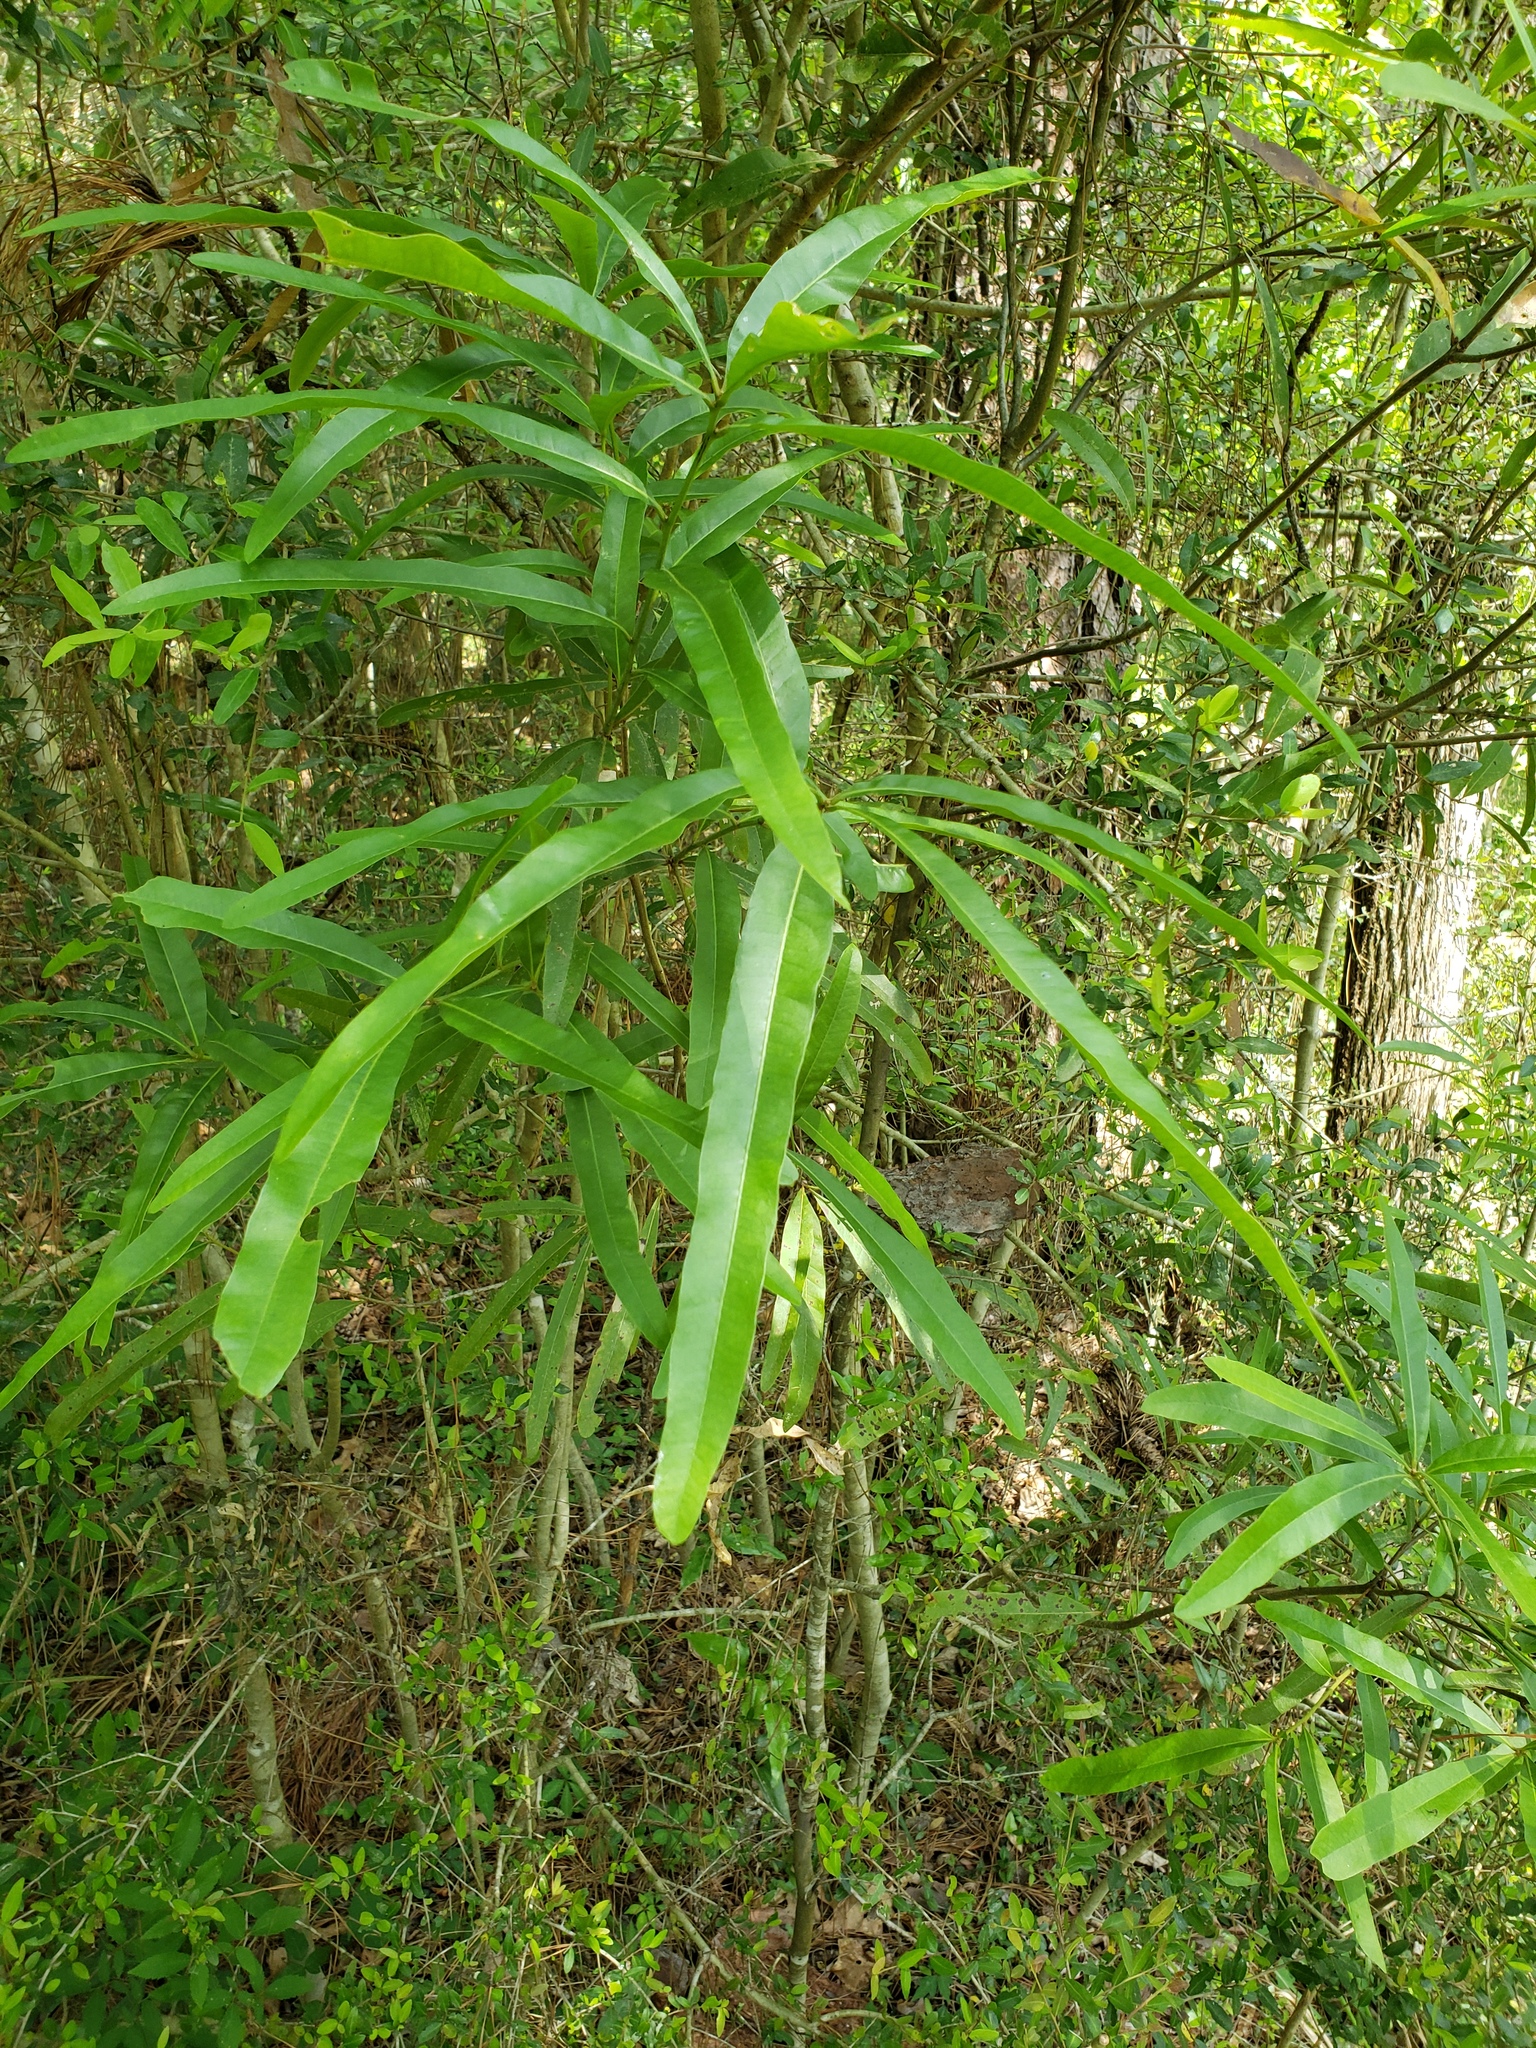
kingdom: Plantae
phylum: Tracheophyta
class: Magnoliopsida
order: Fagales
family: Fagaceae
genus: Quercus
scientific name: Quercus phellos
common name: Willow oak
